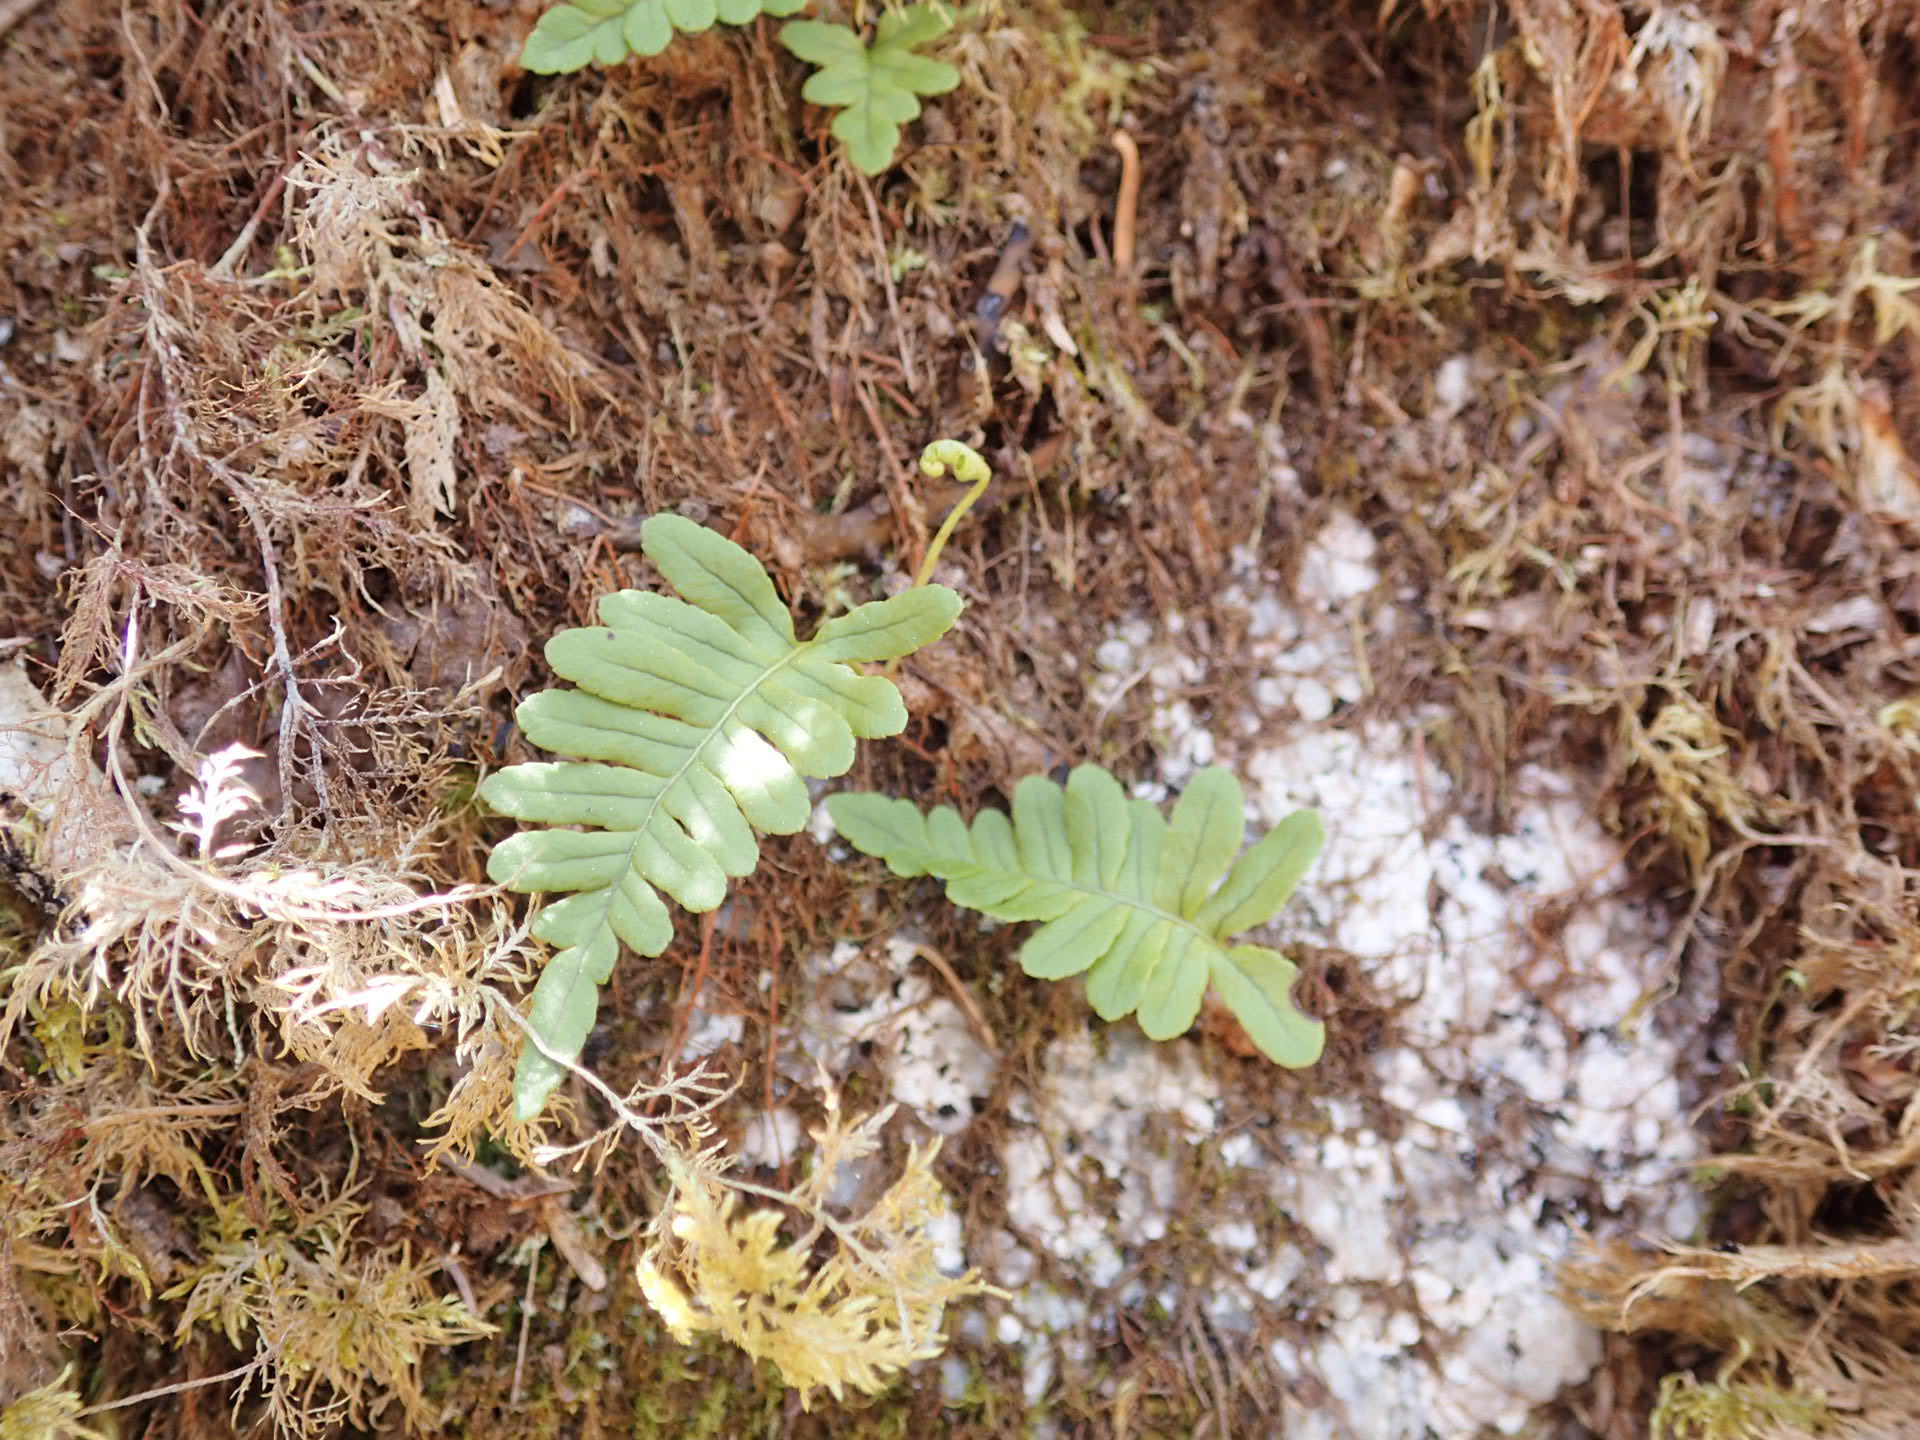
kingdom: Plantae
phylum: Tracheophyta
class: Polypodiopsida
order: Polypodiales
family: Polypodiaceae
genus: Polypodium
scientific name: Polypodium virginianum
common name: American wall fern
